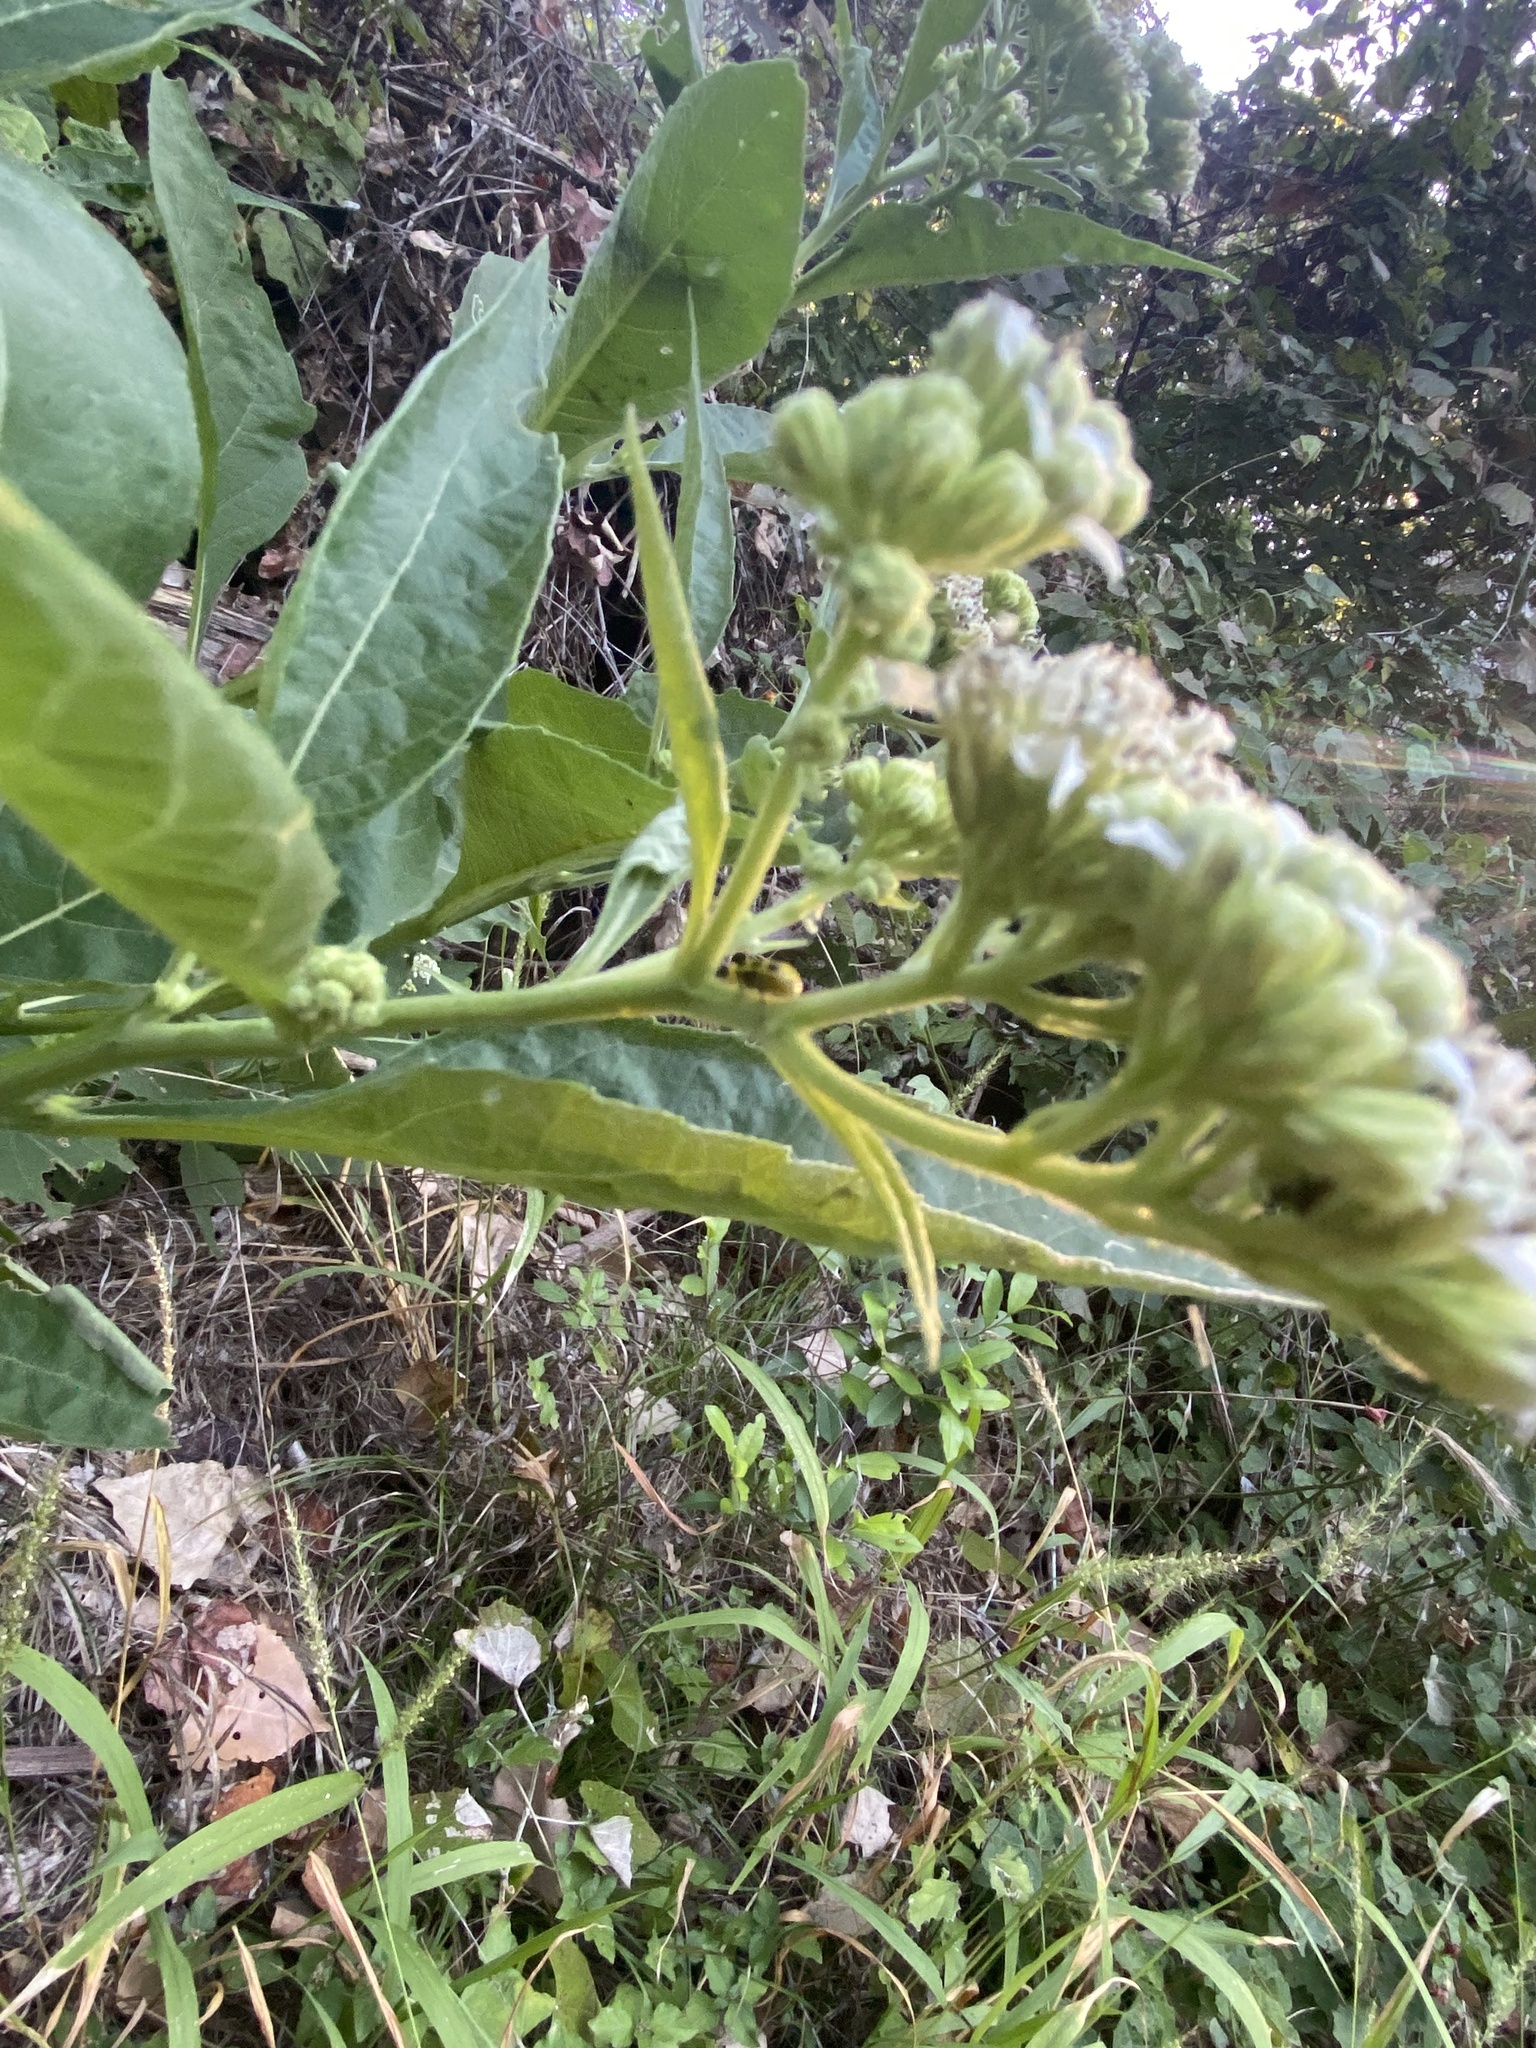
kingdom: Plantae
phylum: Tracheophyta
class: Magnoliopsida
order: Asterales
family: Asteraceae
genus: Verbesina
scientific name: Verbesina virginica
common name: Frostweed
